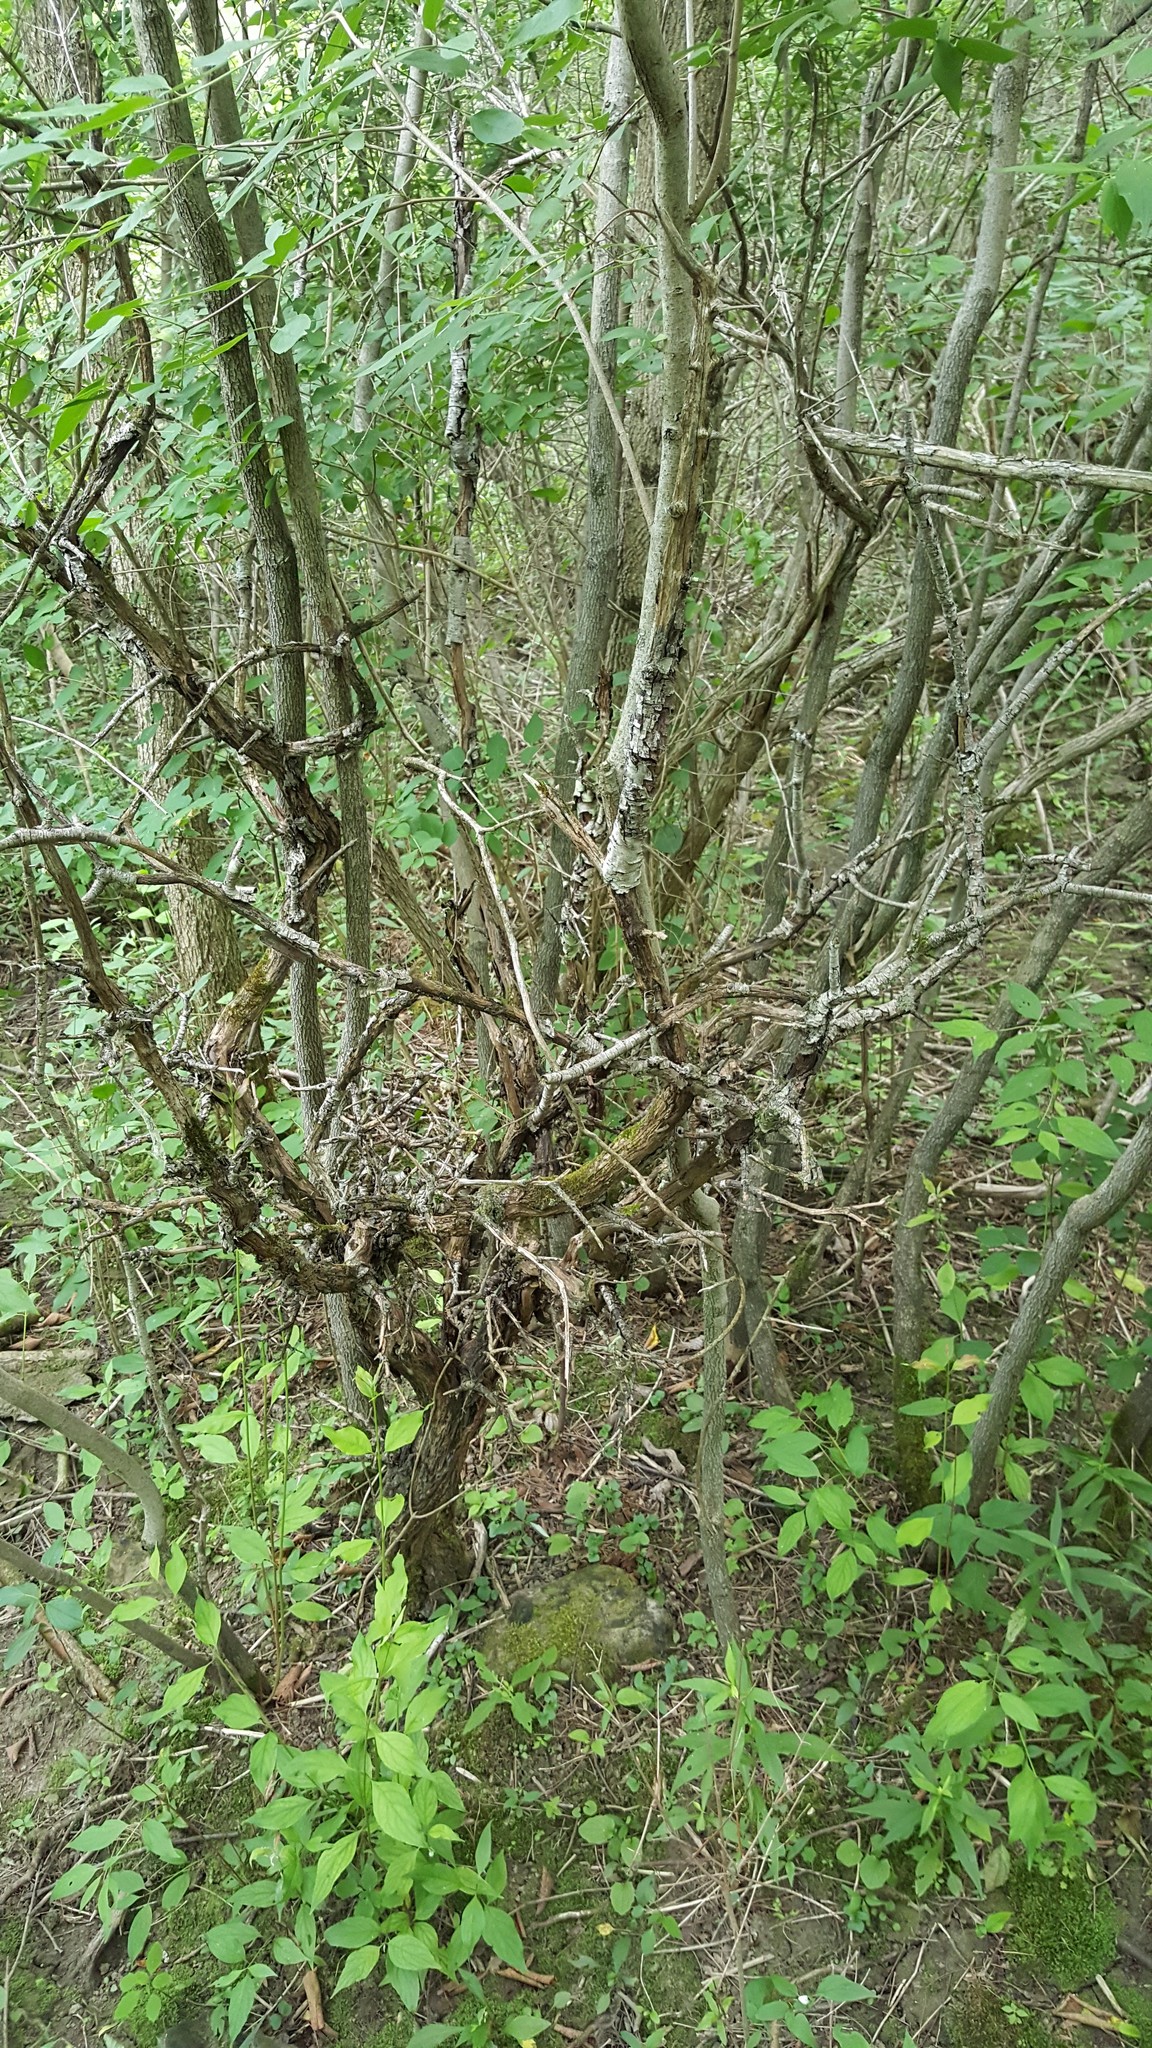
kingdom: Plantae
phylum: Tracheophyta
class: Magnoliopsida
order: Rosales
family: Rhamnaceae
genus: Rhamnus
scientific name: Rhamnus cathartica
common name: Common buckthorn
